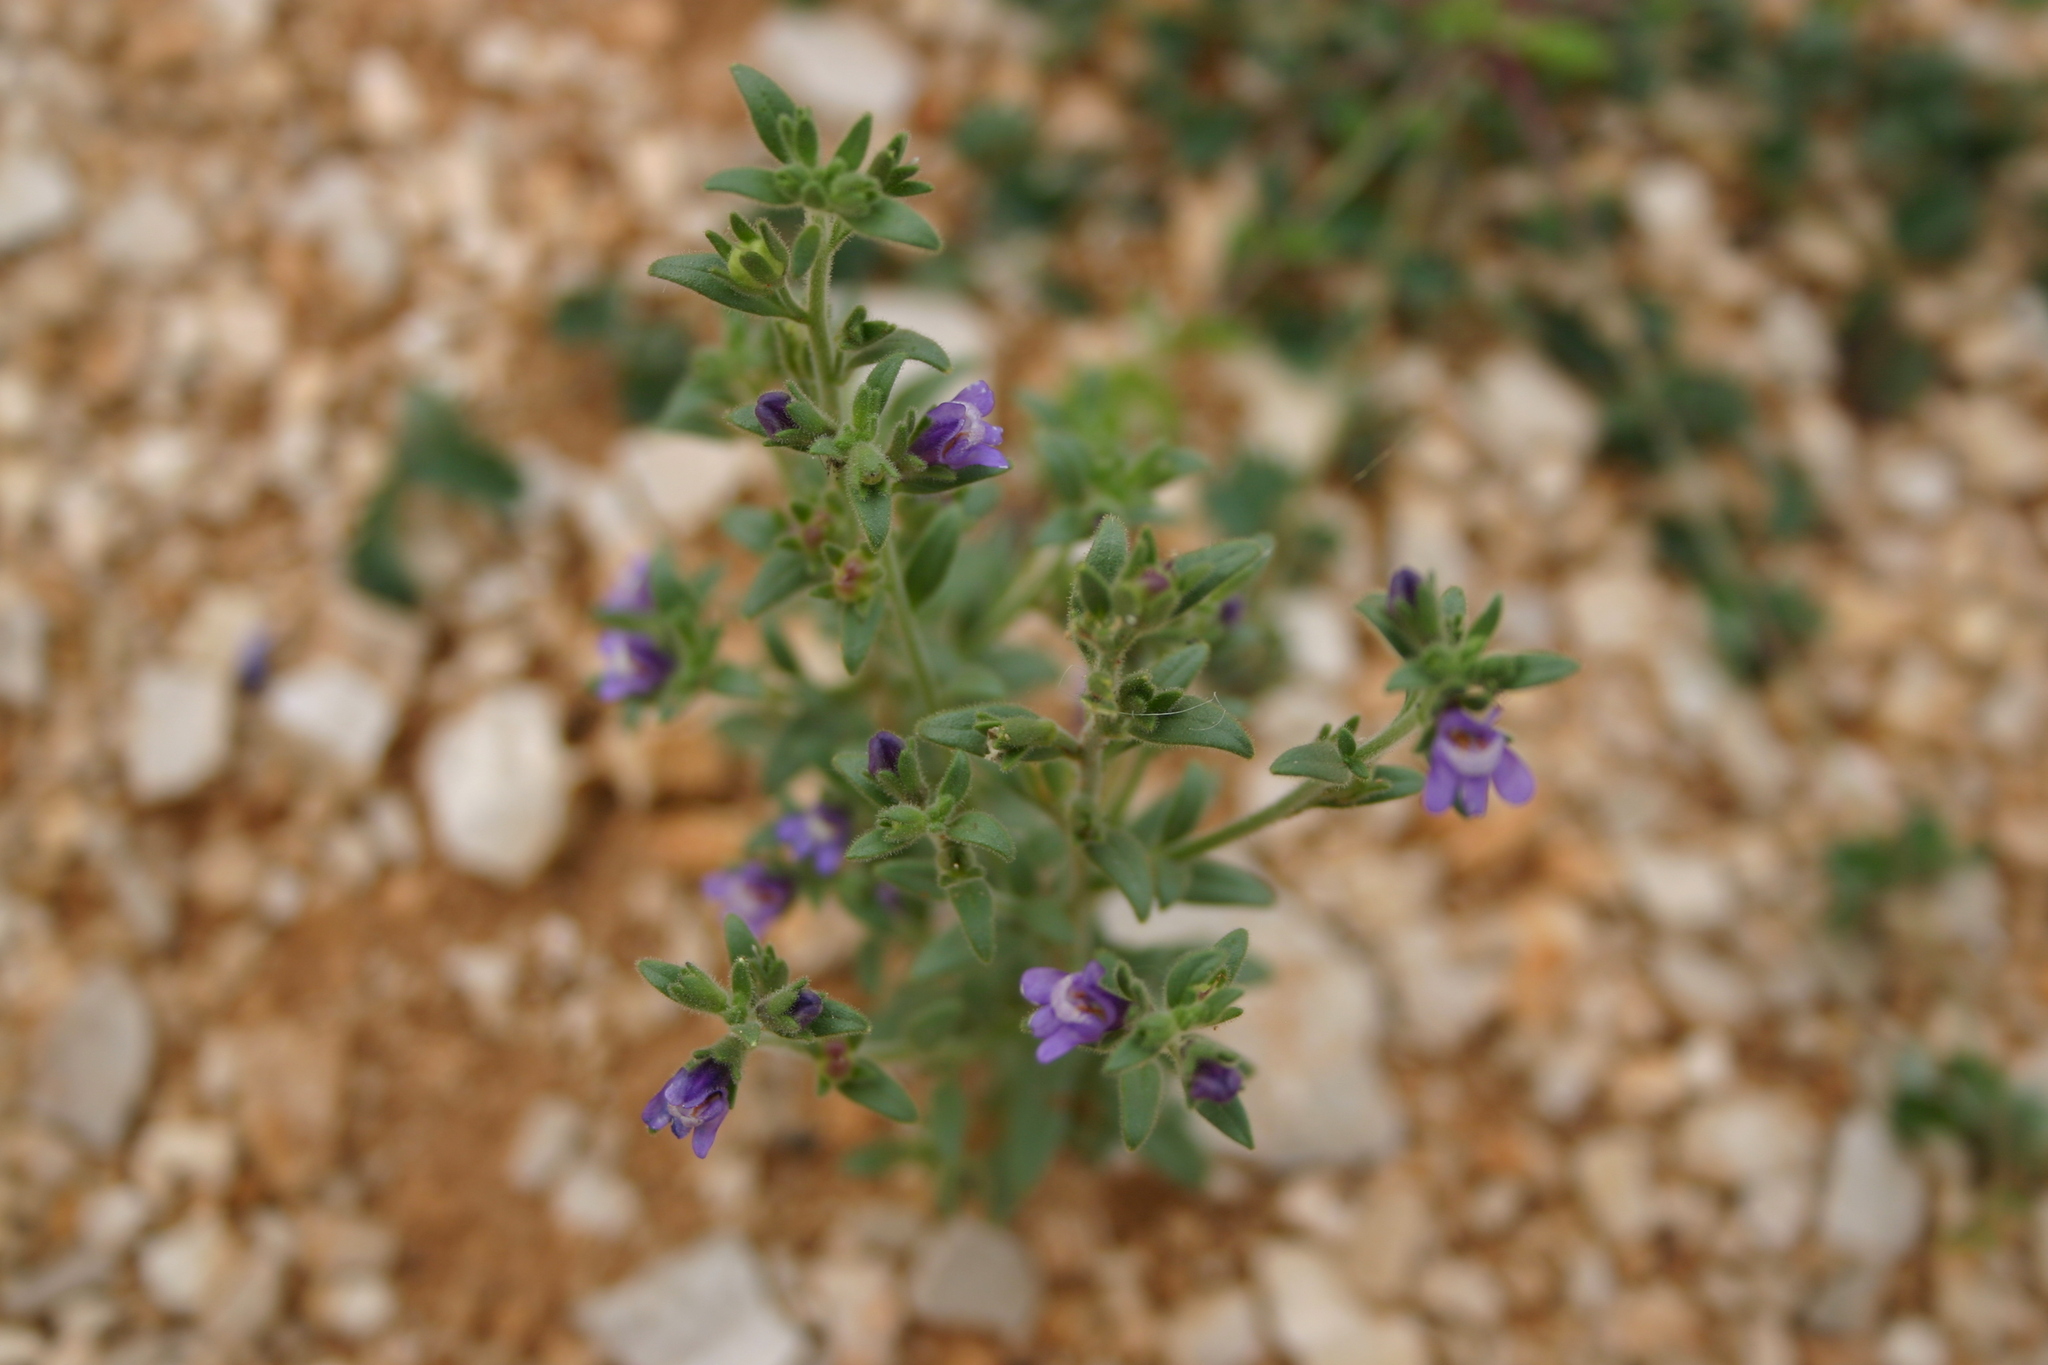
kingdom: Plantae
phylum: Tracheophyta
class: Magnoliopsida
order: Lamiales
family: Plantaginaceae
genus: Chaenorhinum
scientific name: Chaenorhinum litorale
